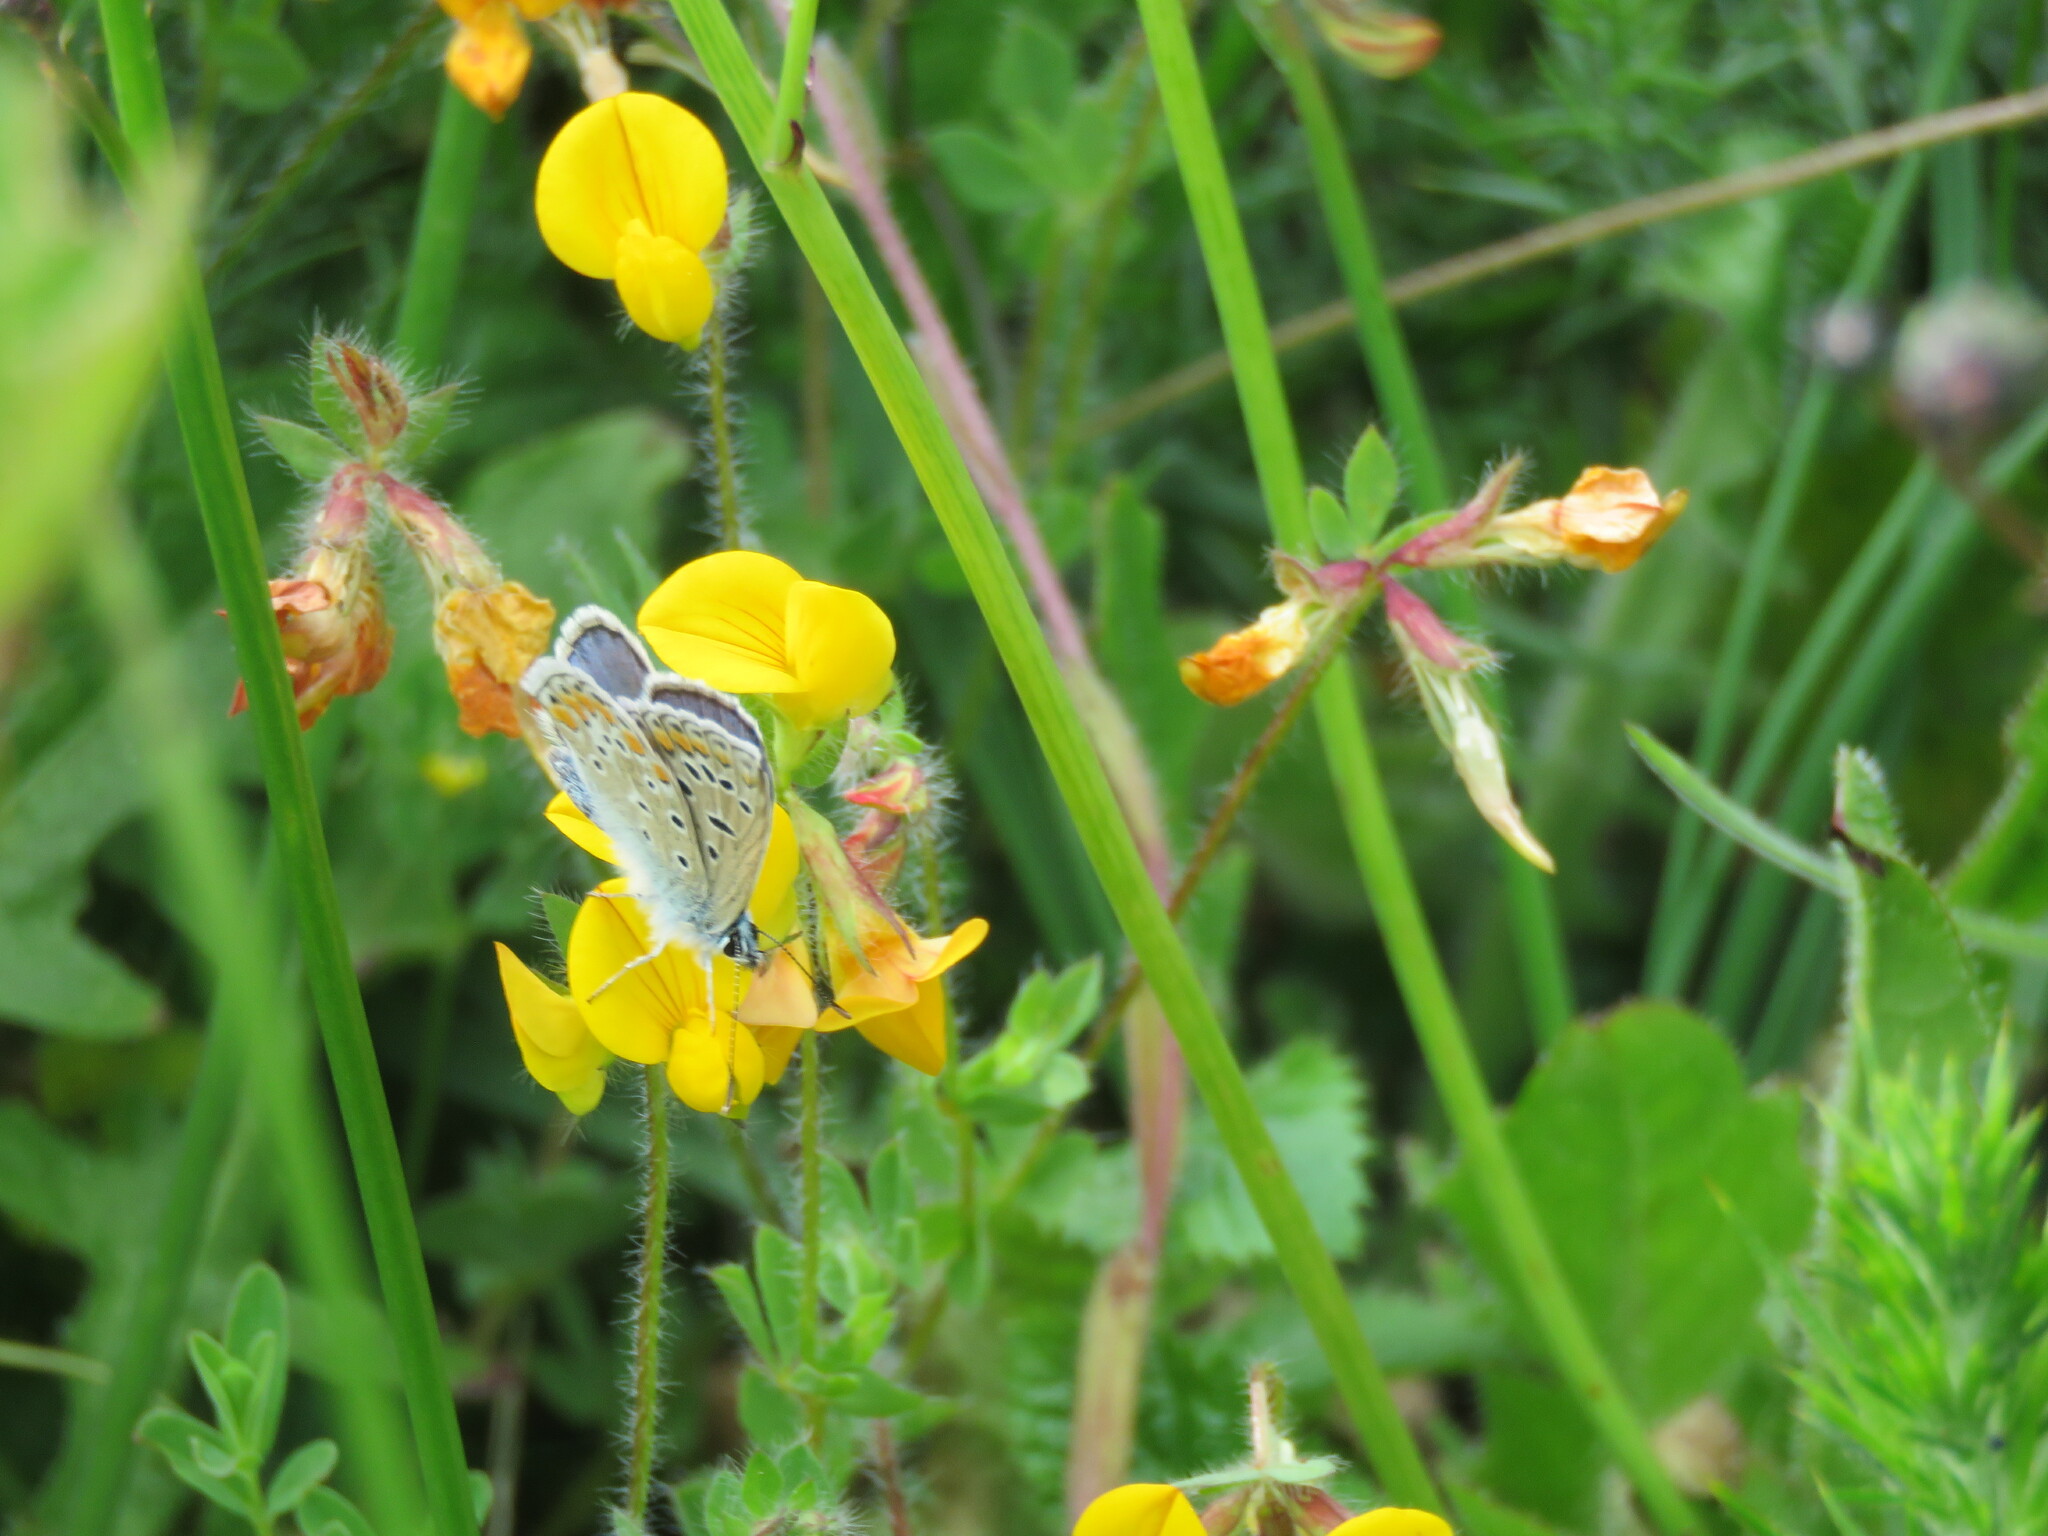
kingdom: Animalia
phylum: Arthropoda
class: Insecta
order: Lepidoptera
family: Lycaenidae
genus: Polyommatus
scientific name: Polyommatus icarus
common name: Common blue
